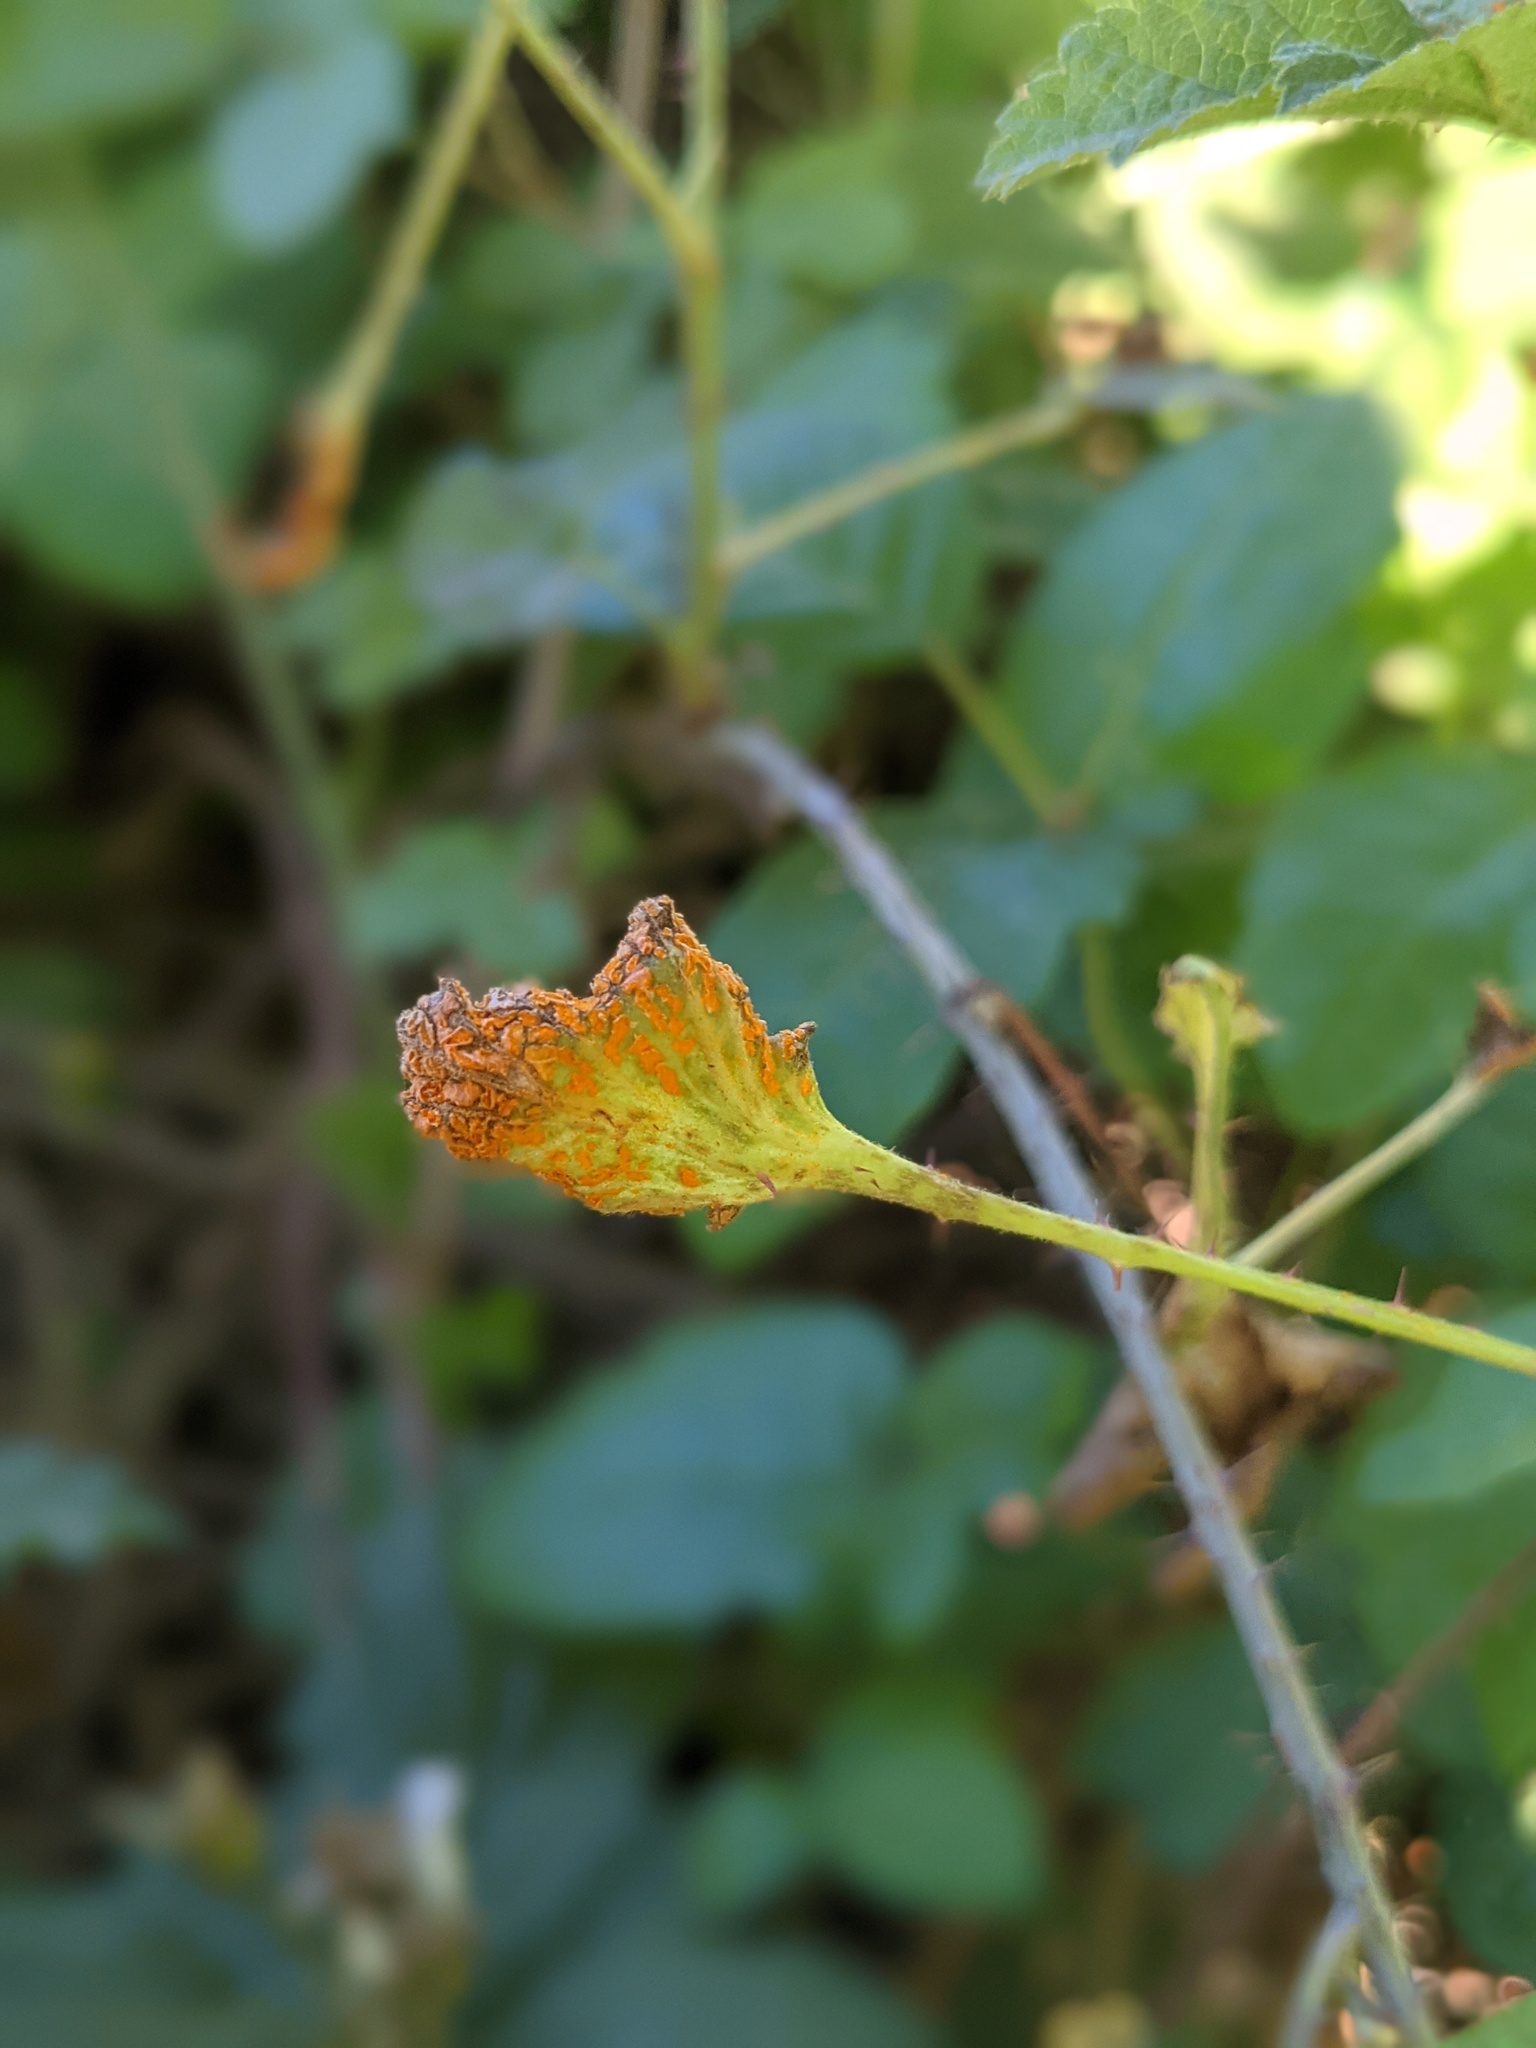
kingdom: Fungi
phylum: Basidiomycota
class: Pucciniomycetes
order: Pucciniales
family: Phragmidiaceae
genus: Arthuriomyces
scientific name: Arthuriomyces peckianus
